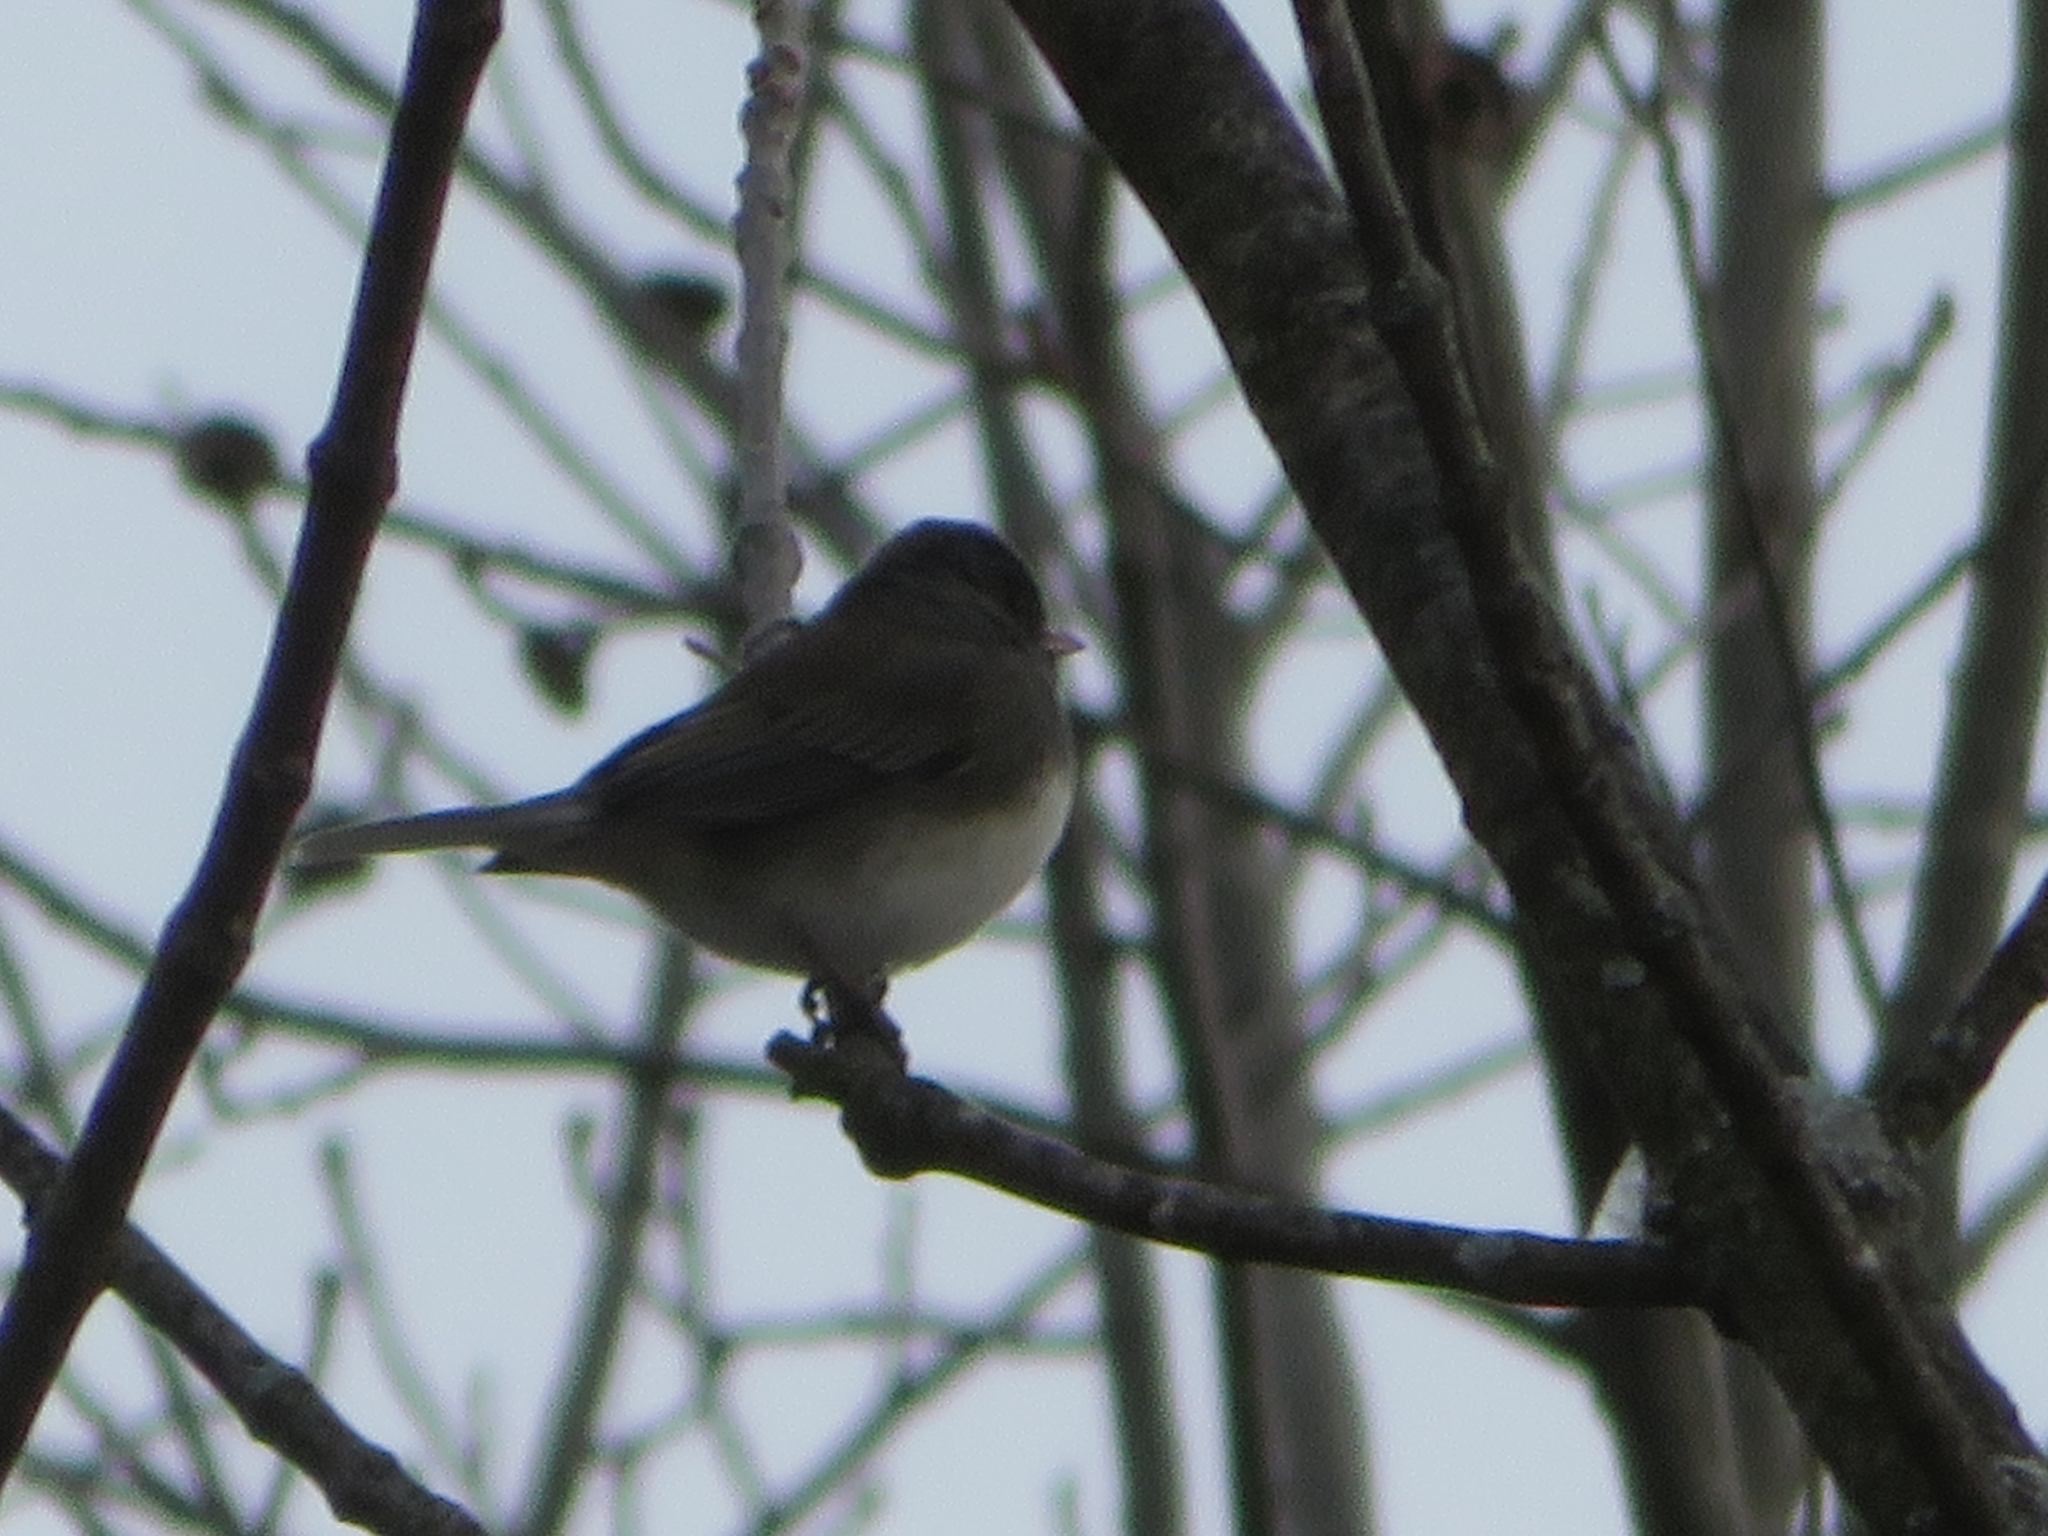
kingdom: Animalia
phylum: Chordata
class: Aves
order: Passeriformes
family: Passerellidae
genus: Junco
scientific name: Junco hyemalis
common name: Dark-eyed junco
